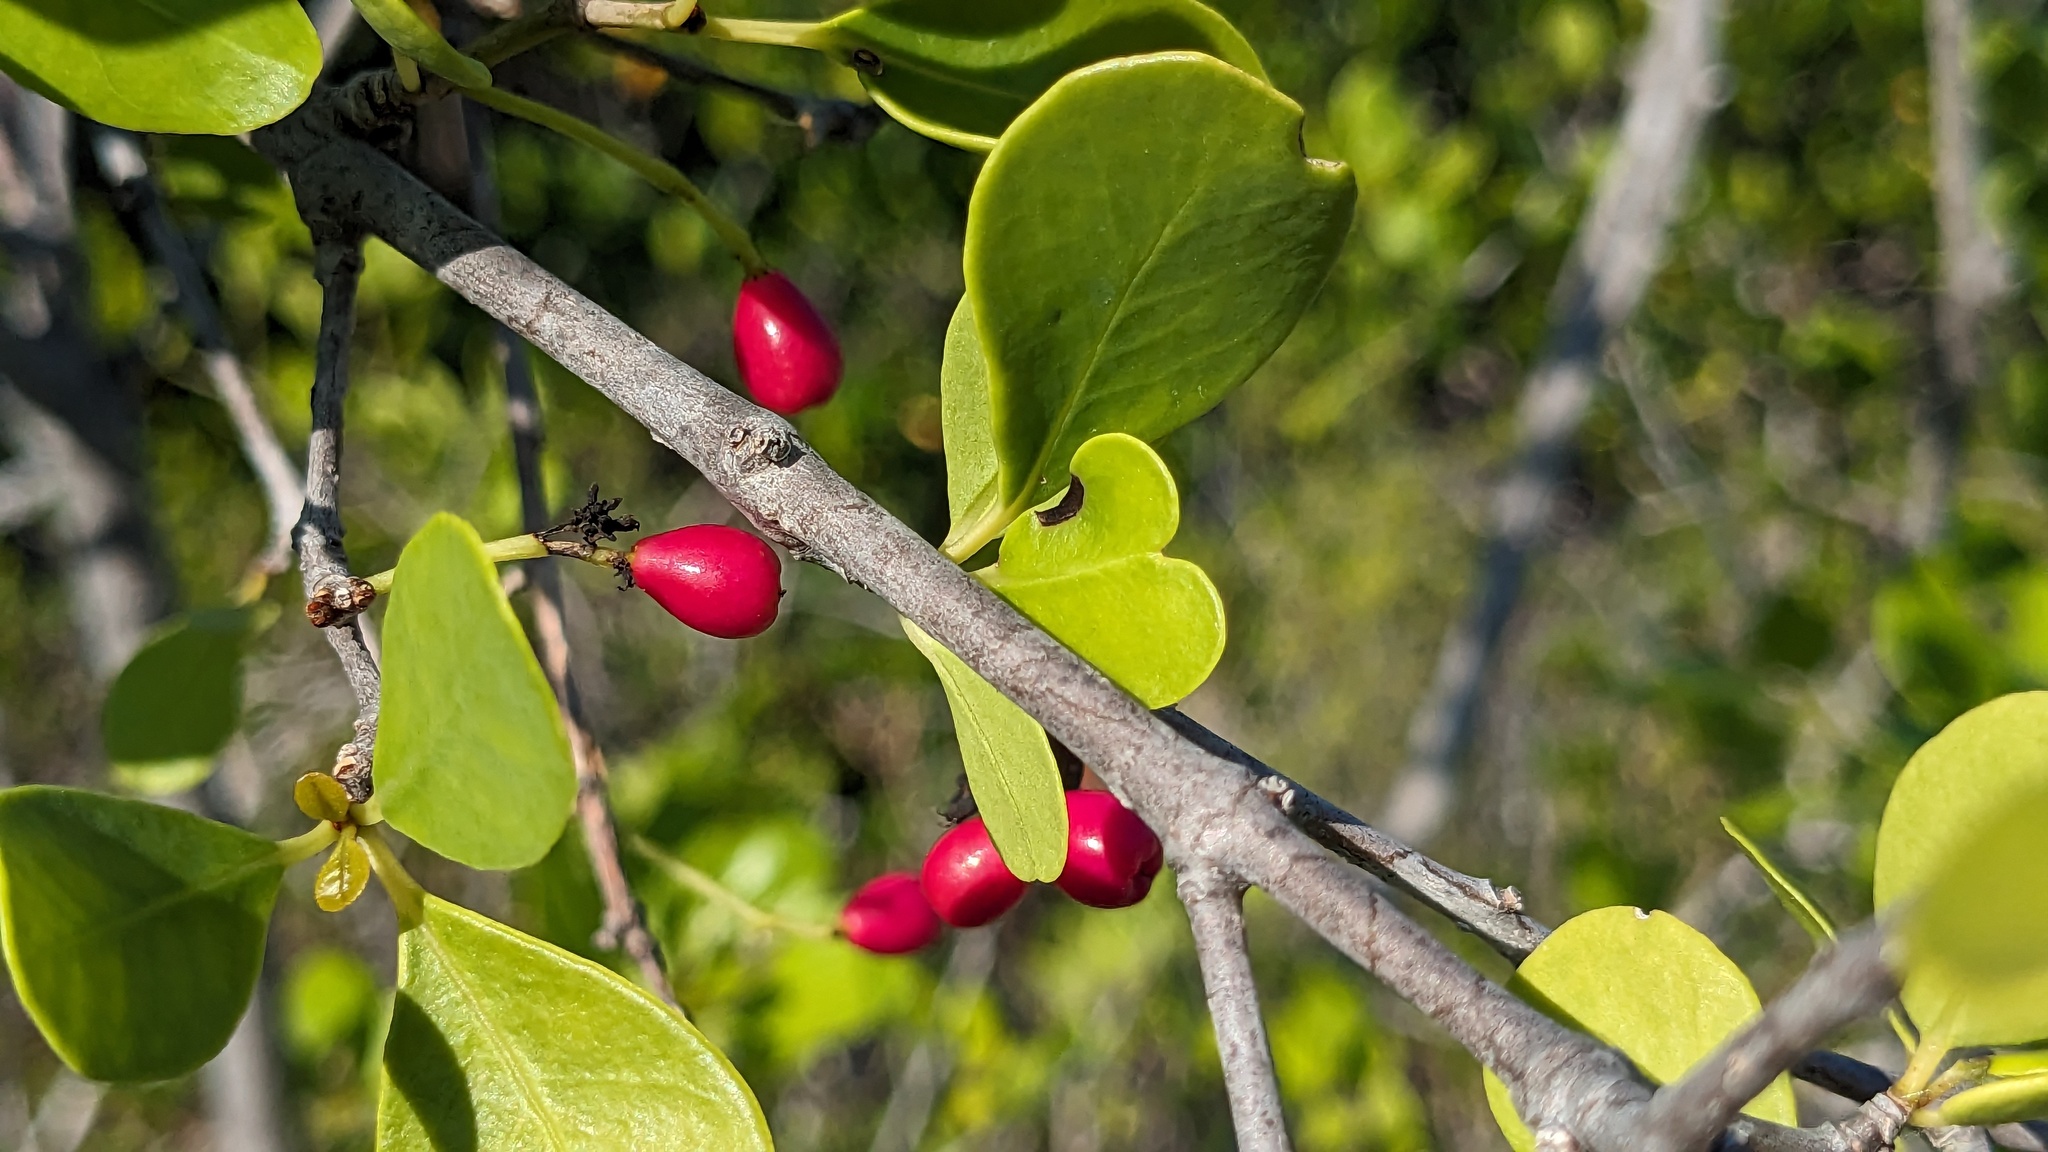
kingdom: Plantae
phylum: Tracheophyta
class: Magnoliopsida
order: Caryophyllales
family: Nyctaginaceae
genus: Guapira
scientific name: Guapira discolor
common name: Beeftree
